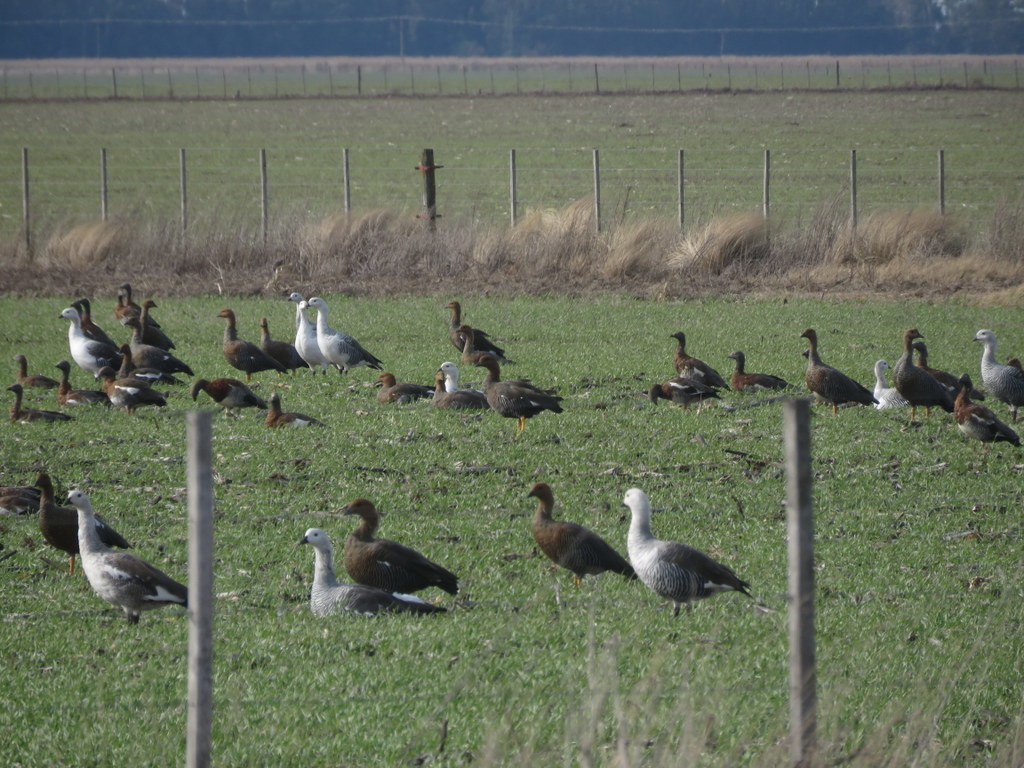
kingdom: Animalia
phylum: Chordata
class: Aves
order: Anseriformes
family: Anatidae
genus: Chloephaga
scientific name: Chloephaga picta
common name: Upland goose
